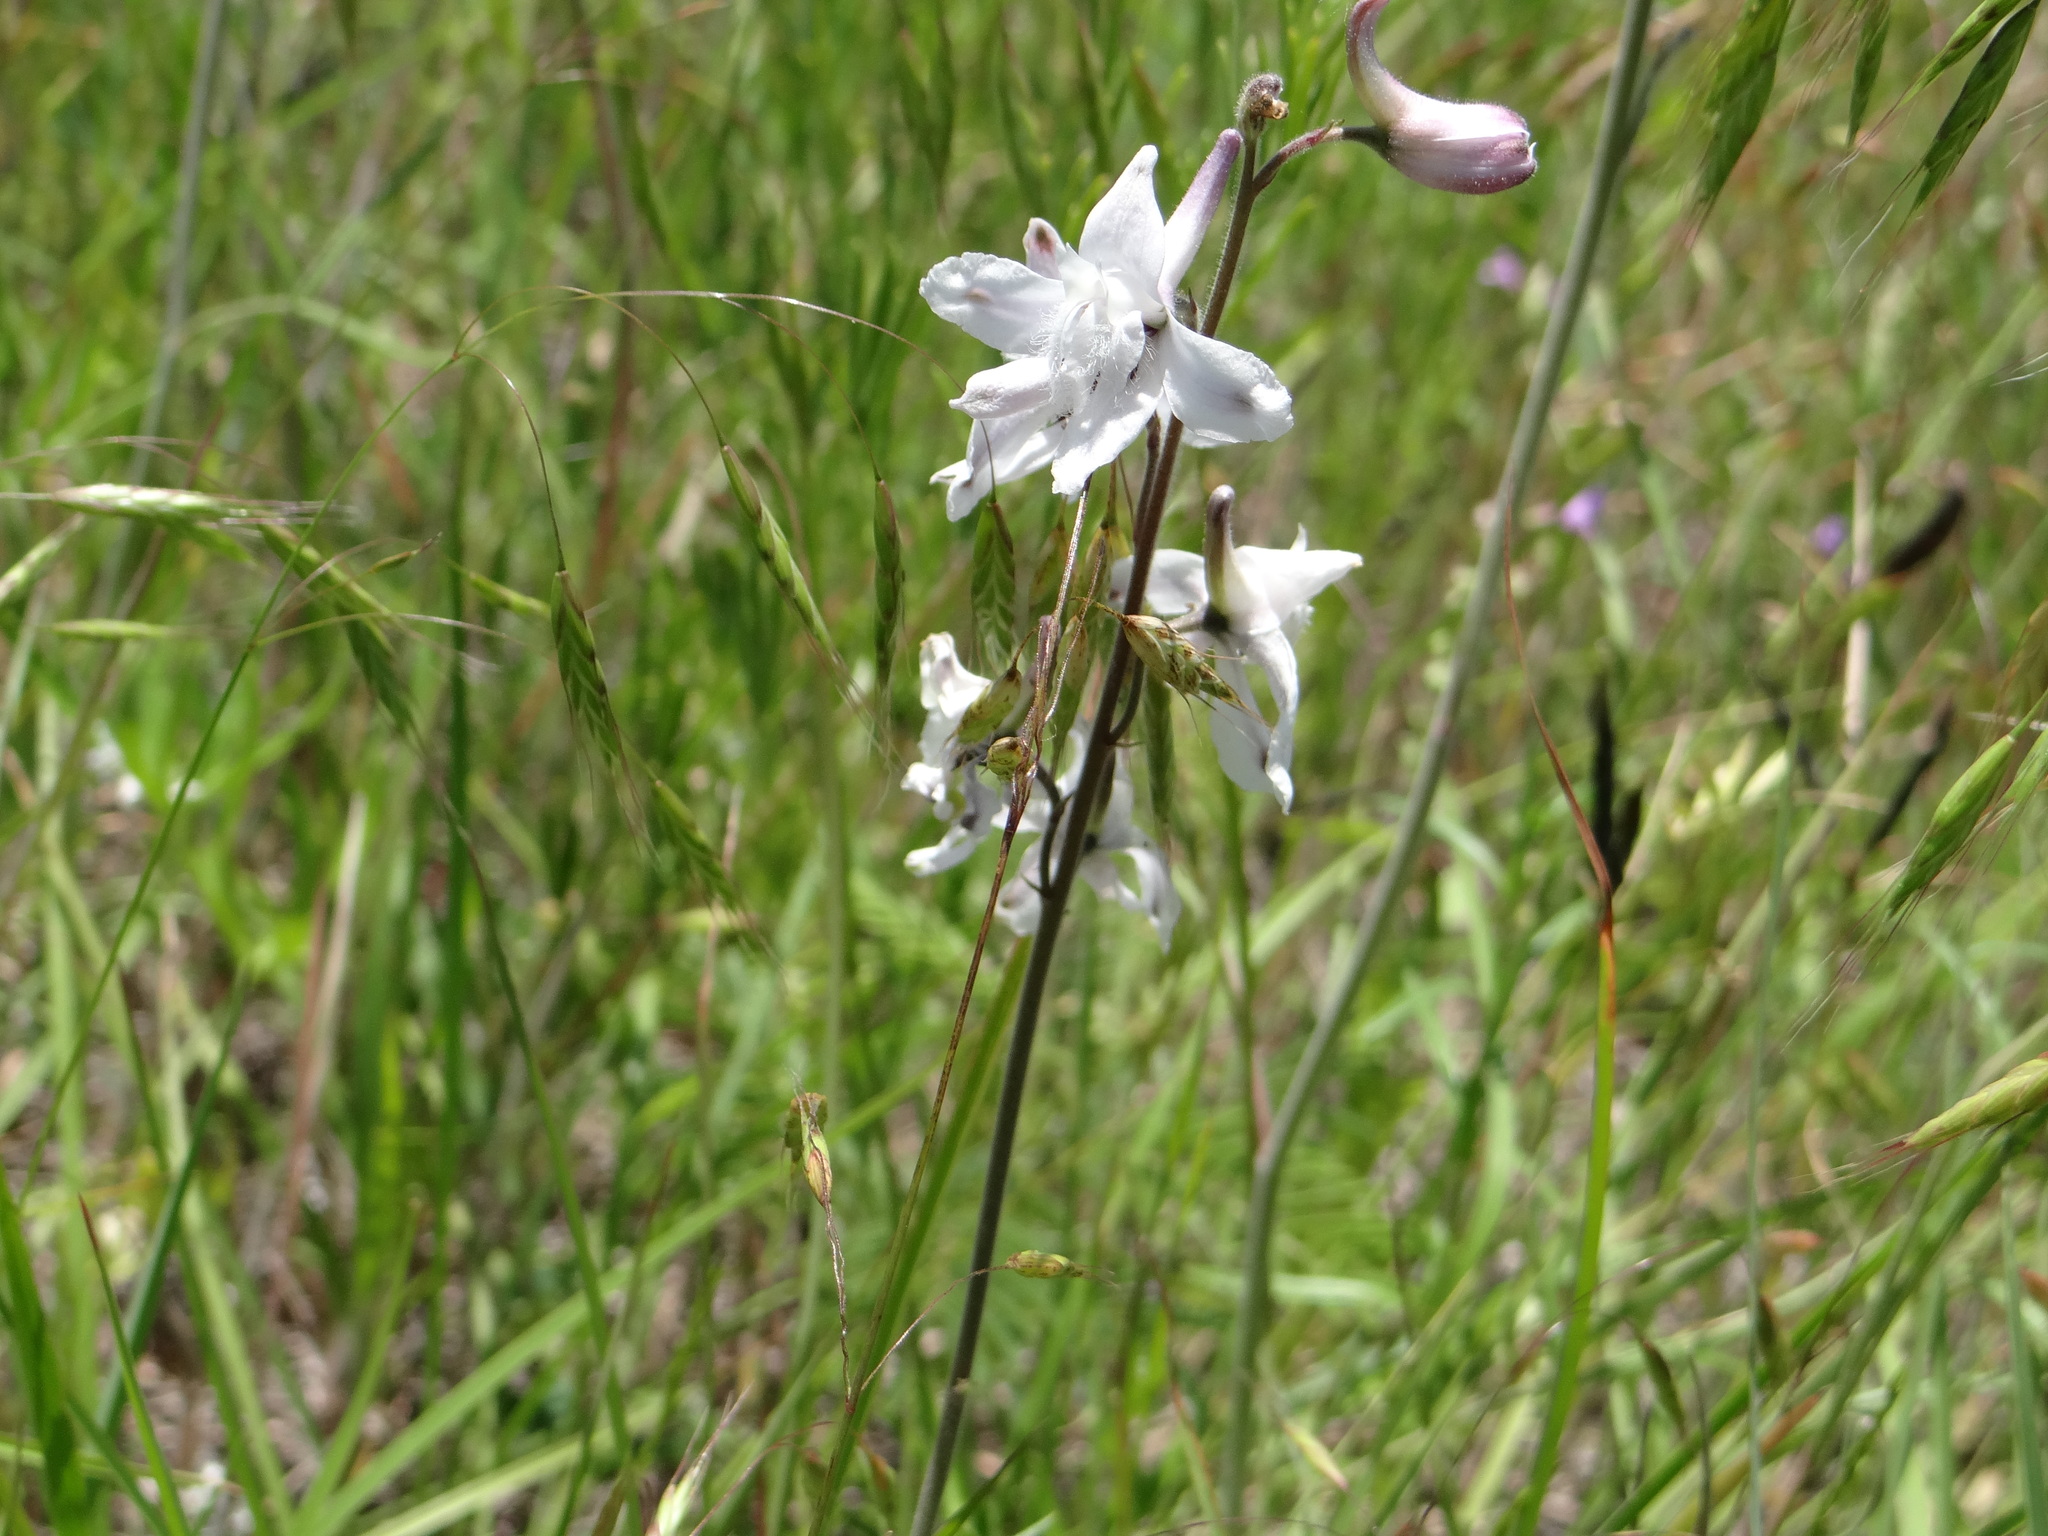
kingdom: Plantae
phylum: Tracheophyta
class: Magnoliopsida
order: Ranunculales
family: Ranunculaceae
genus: Delphinium
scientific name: Delphinium carolinianum
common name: Carolina larkspur
